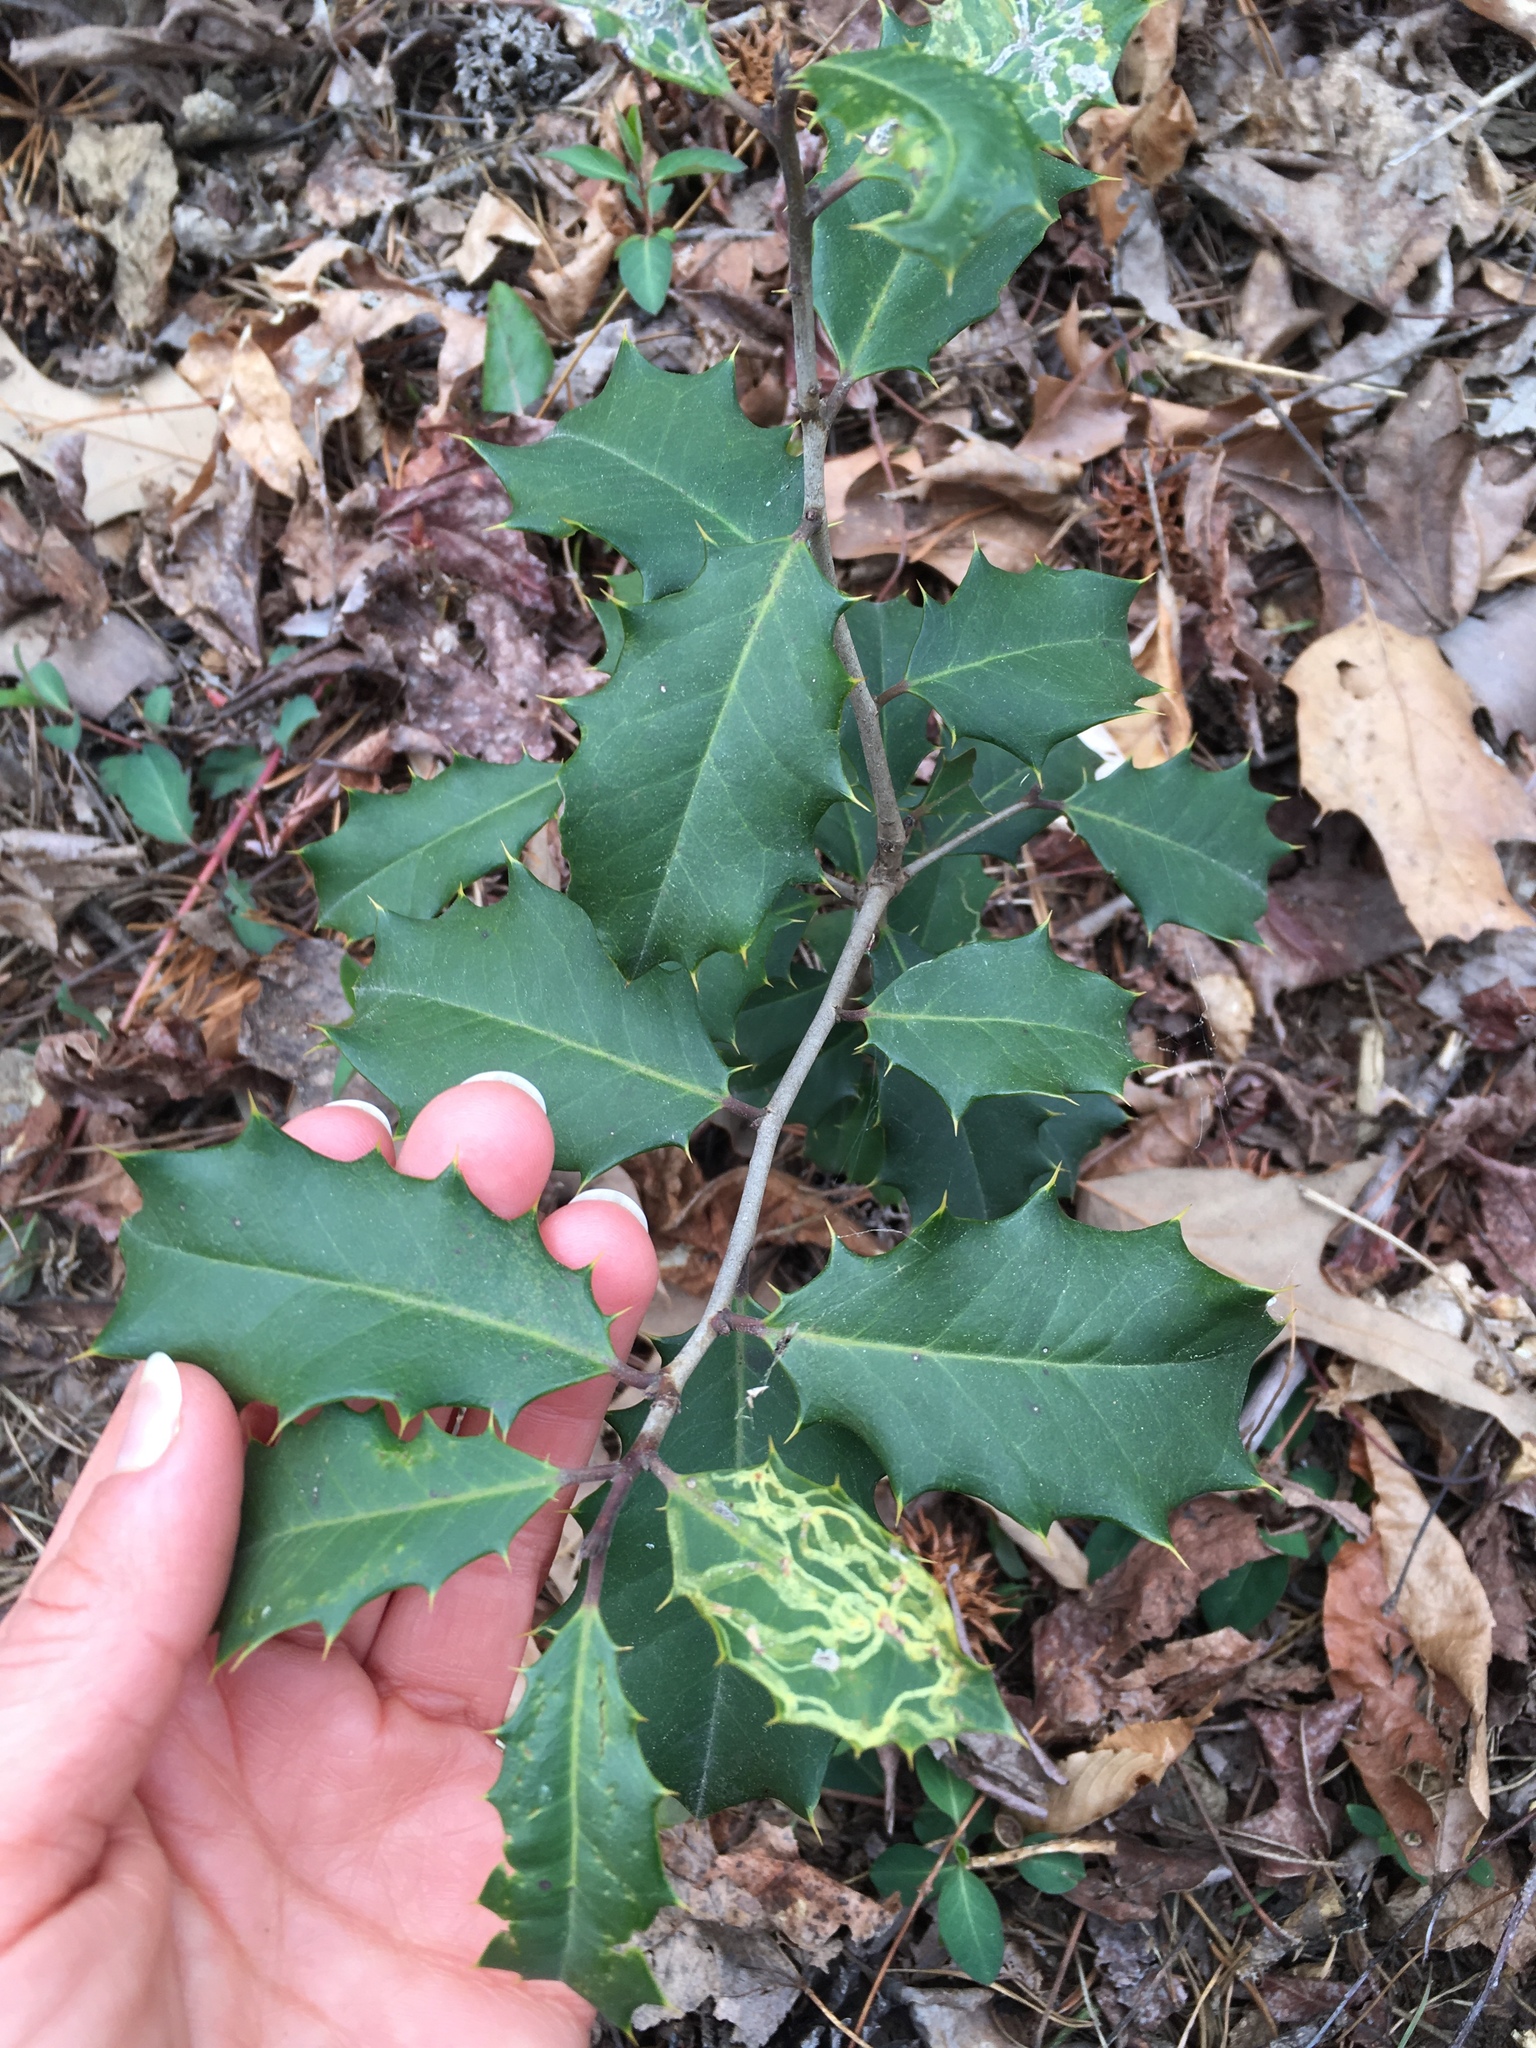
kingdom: Animalia
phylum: Arthropoda
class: Insecta
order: Diptera
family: Agromyzidae
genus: Phytomyza
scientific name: Phytomyza opacae
